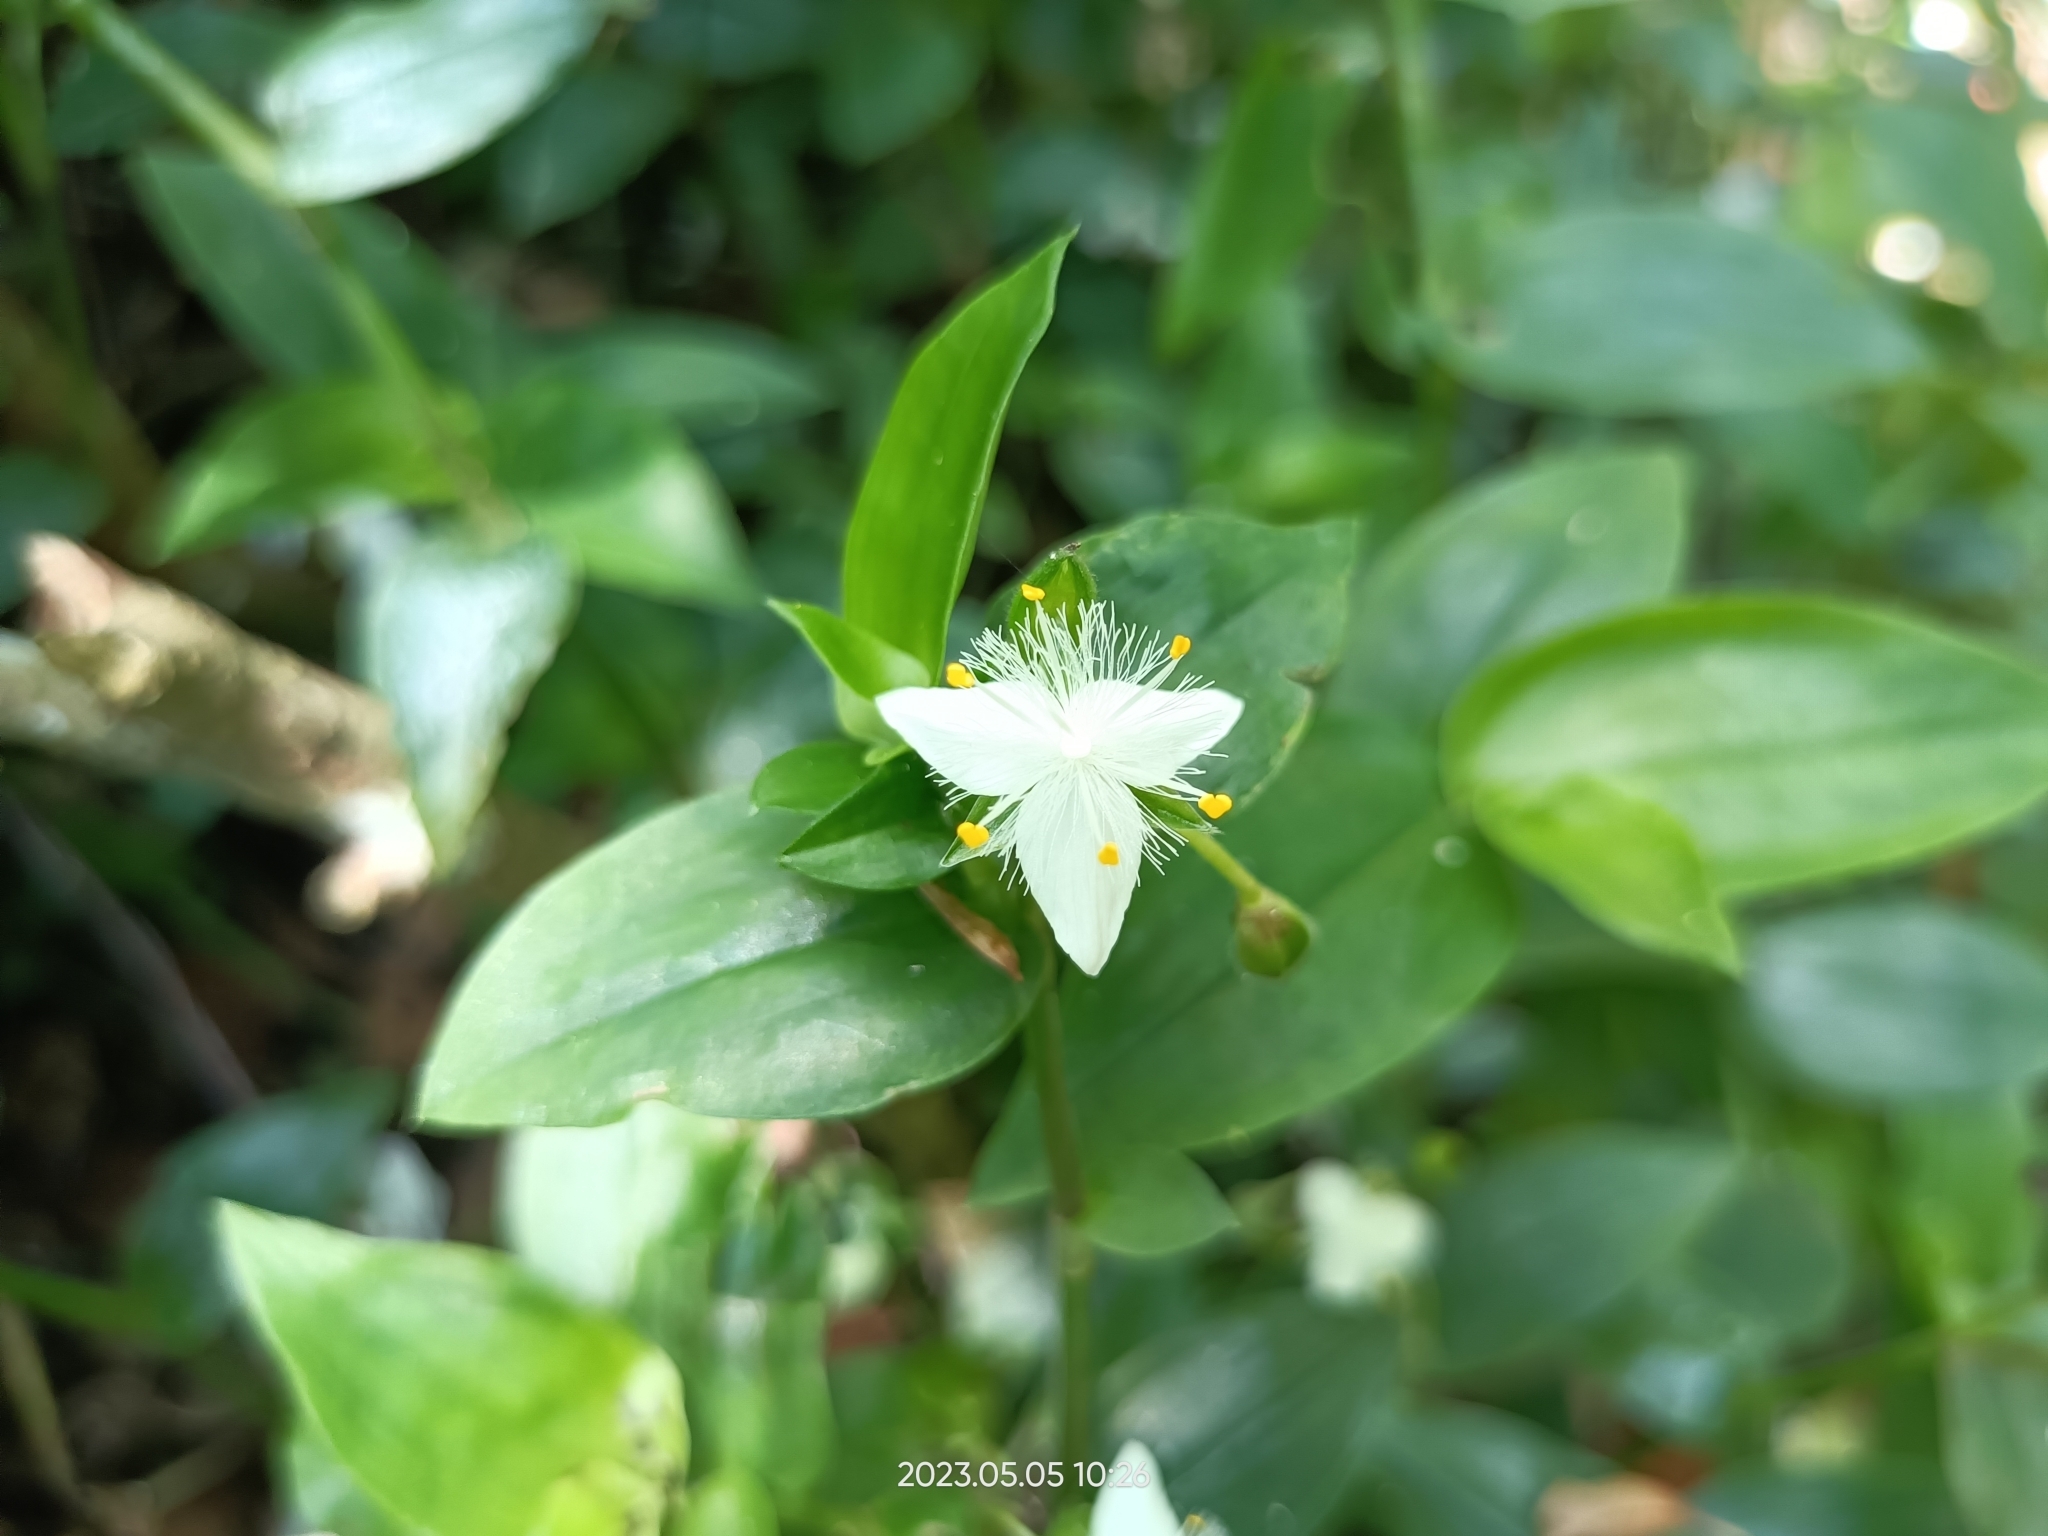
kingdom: Plantae
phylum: Tracheophyta
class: Liliopsida
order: Commelinales
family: Commelinaceae
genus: Tradescantia
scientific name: Tradescantia fluminensis
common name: Wandering-jew
